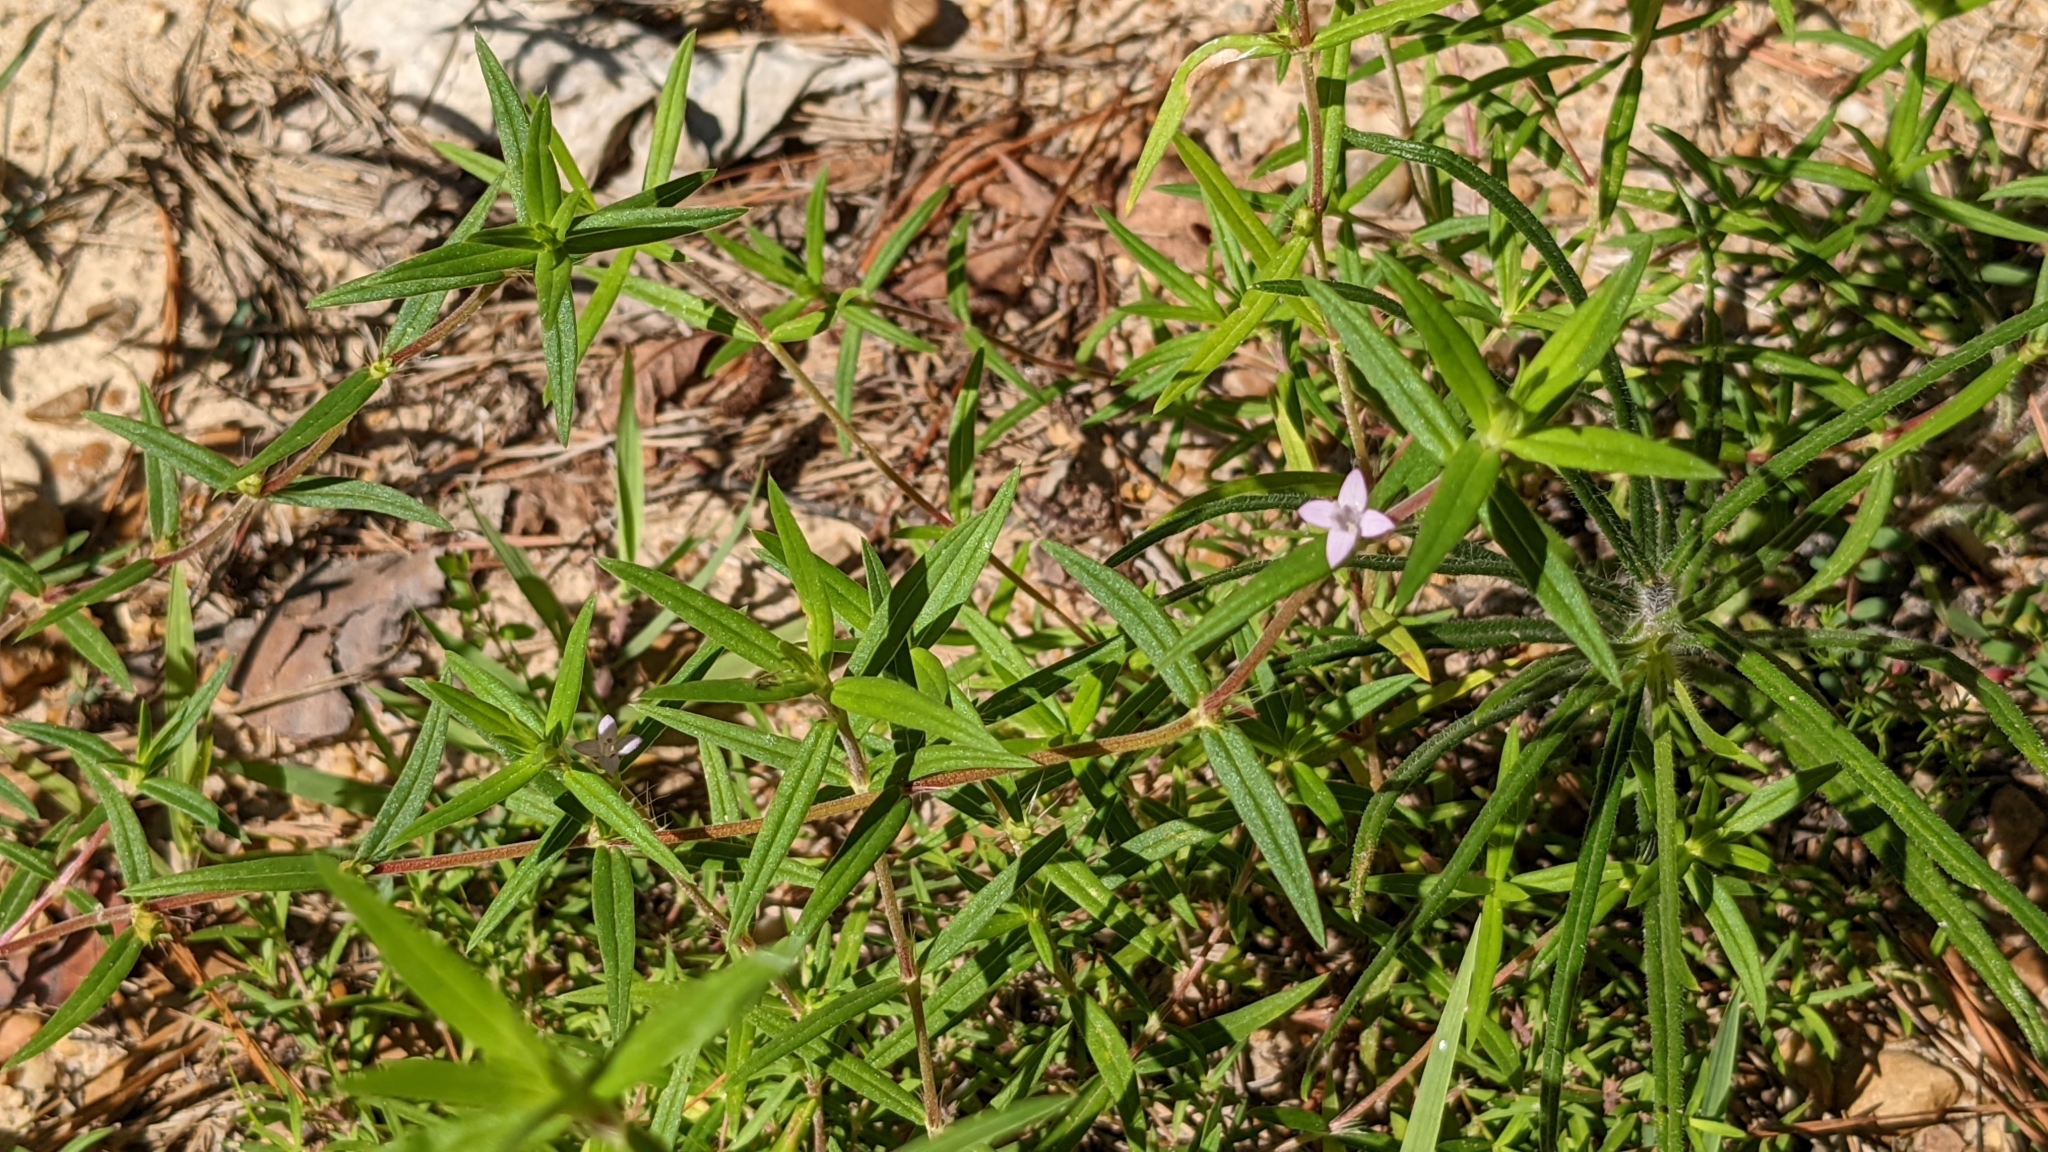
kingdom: Plantae
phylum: Tracheophyta
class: Magnoliopsida
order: Gentianales
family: Rubiaceae
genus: Hexasepalum
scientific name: Hexasepalum teres
